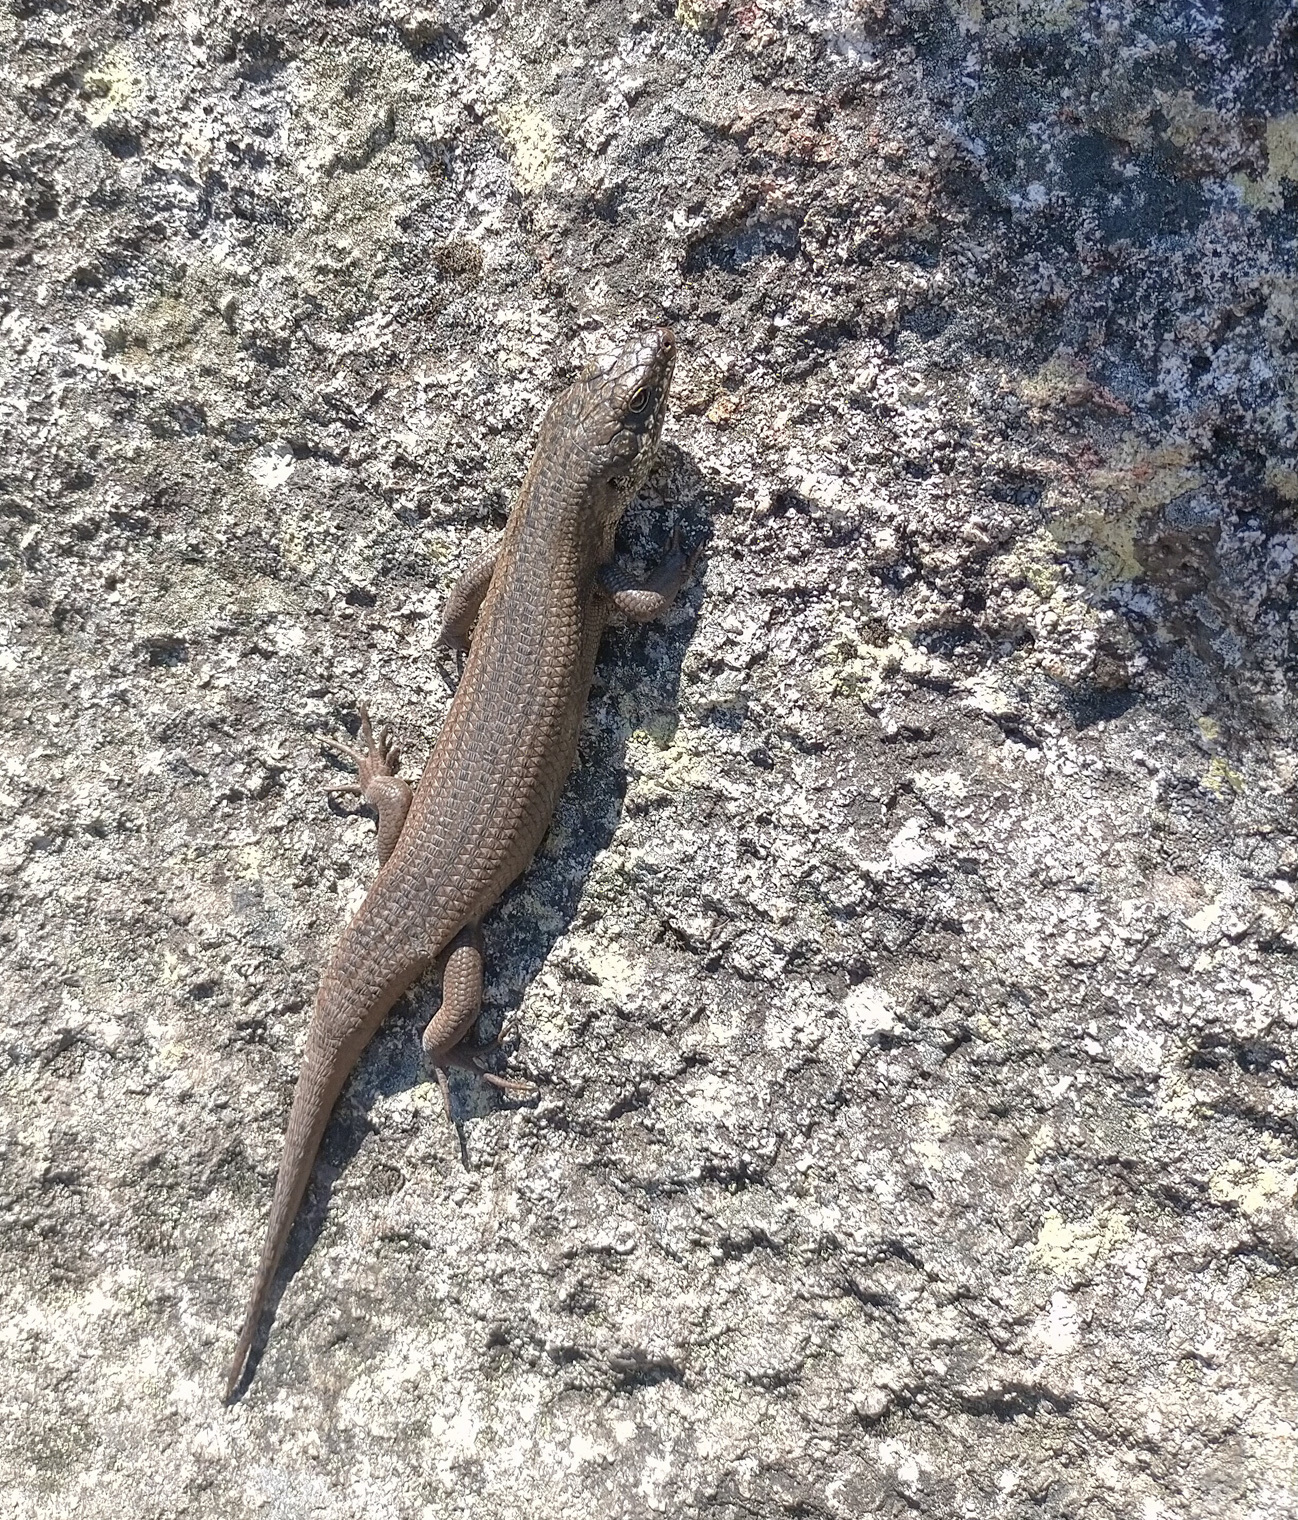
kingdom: Animalia
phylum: Chordata
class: Squamata
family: Scincidae
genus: Egernia
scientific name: Egernia mcpheei
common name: Eastern crevice skink
